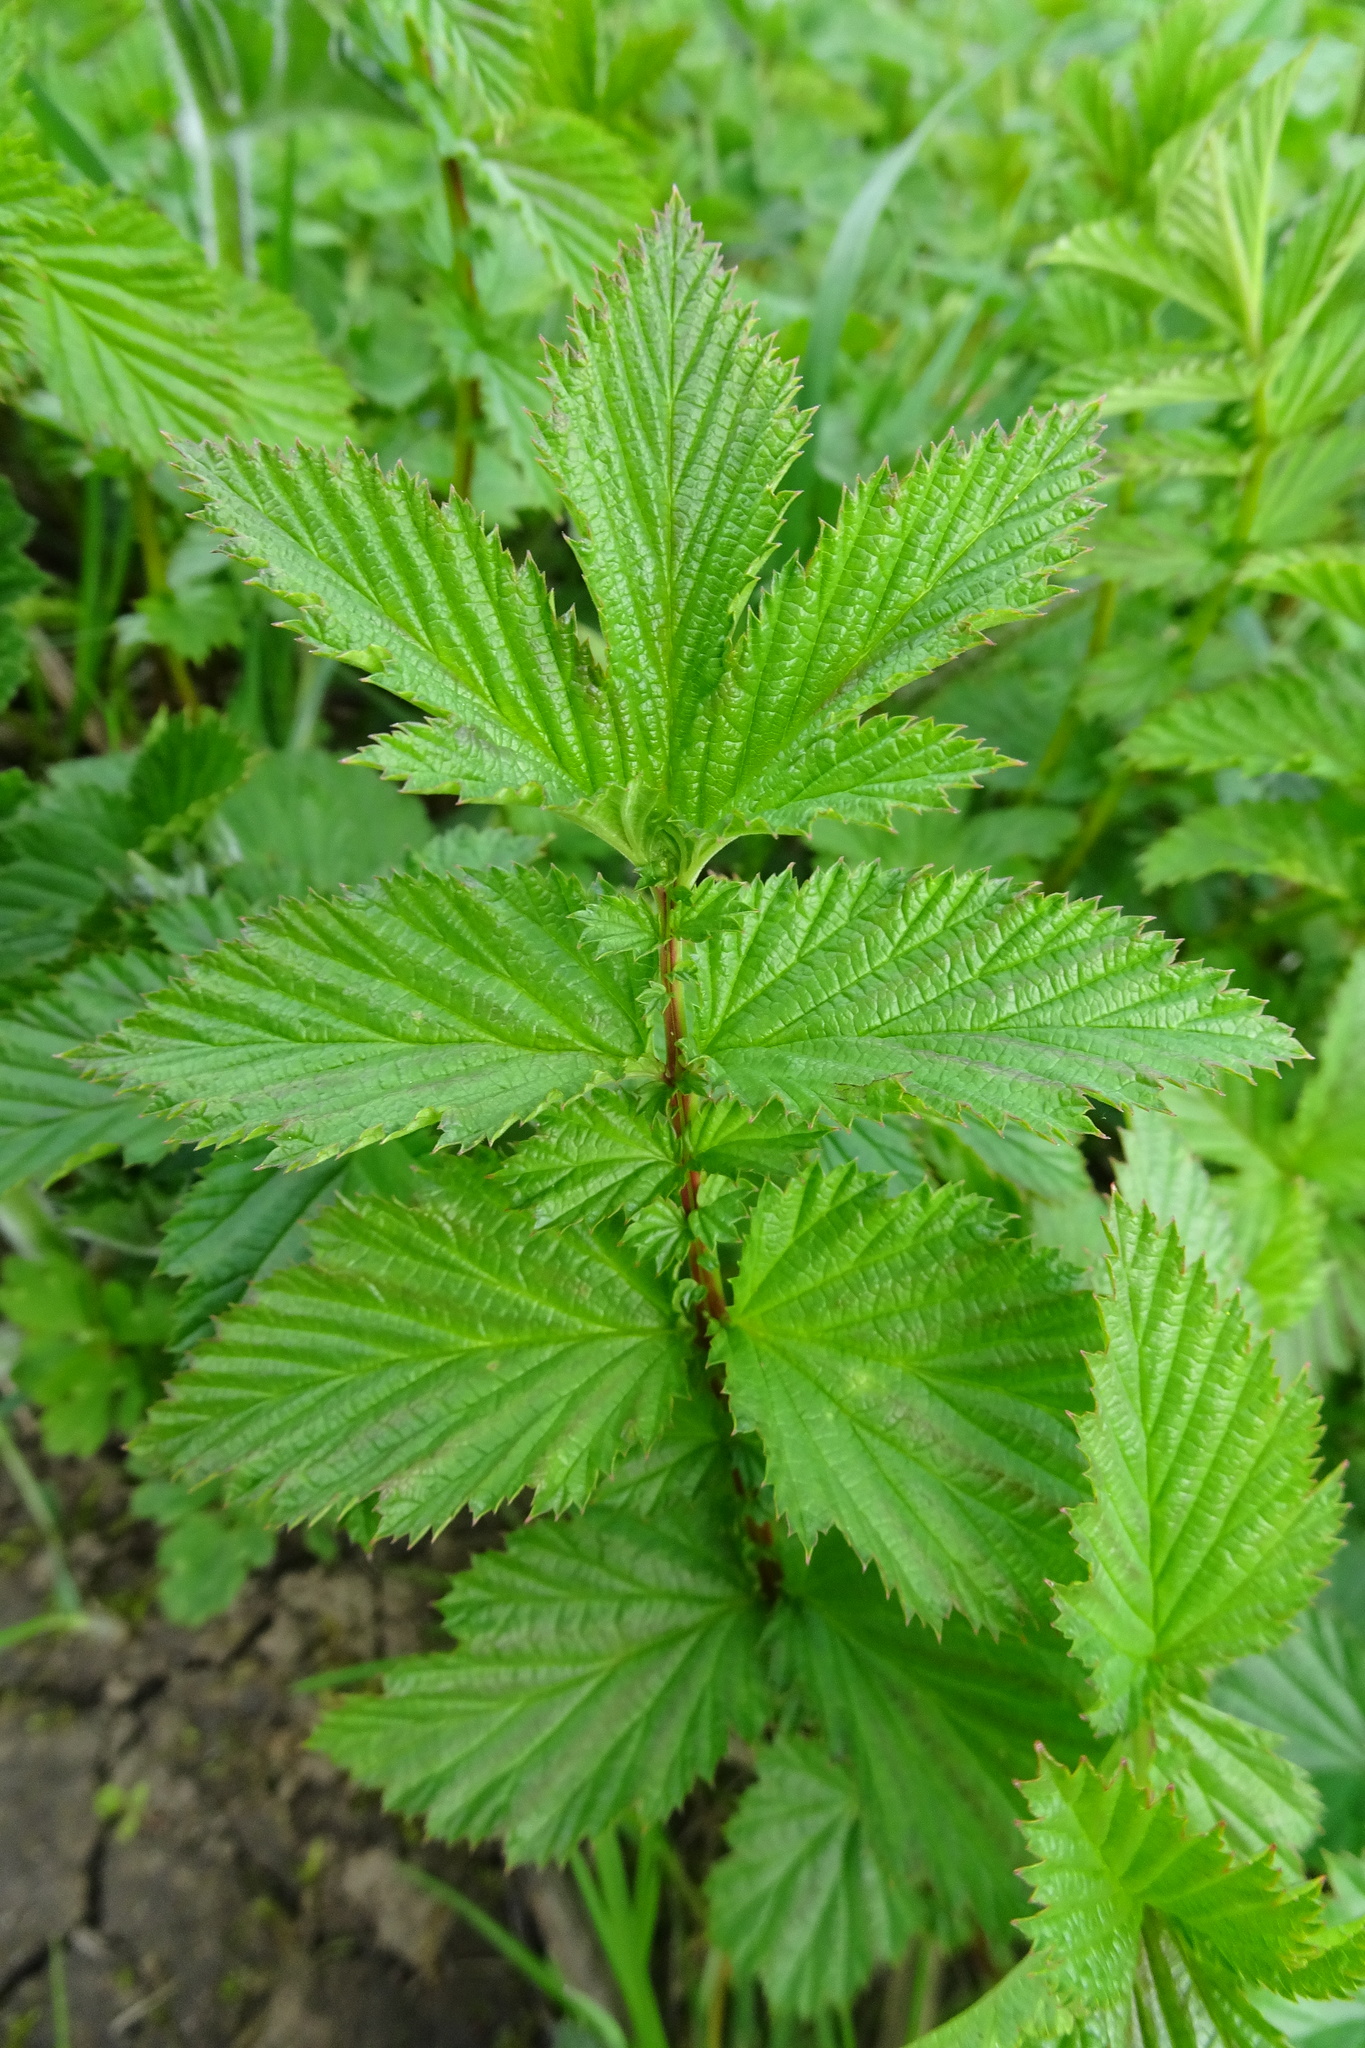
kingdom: Plantae
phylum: Tracheophyta
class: Magnoliopsida
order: Rosales
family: Rosaceae
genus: Filipendula
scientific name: Filipendula ulmaria
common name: Meadowsweet
